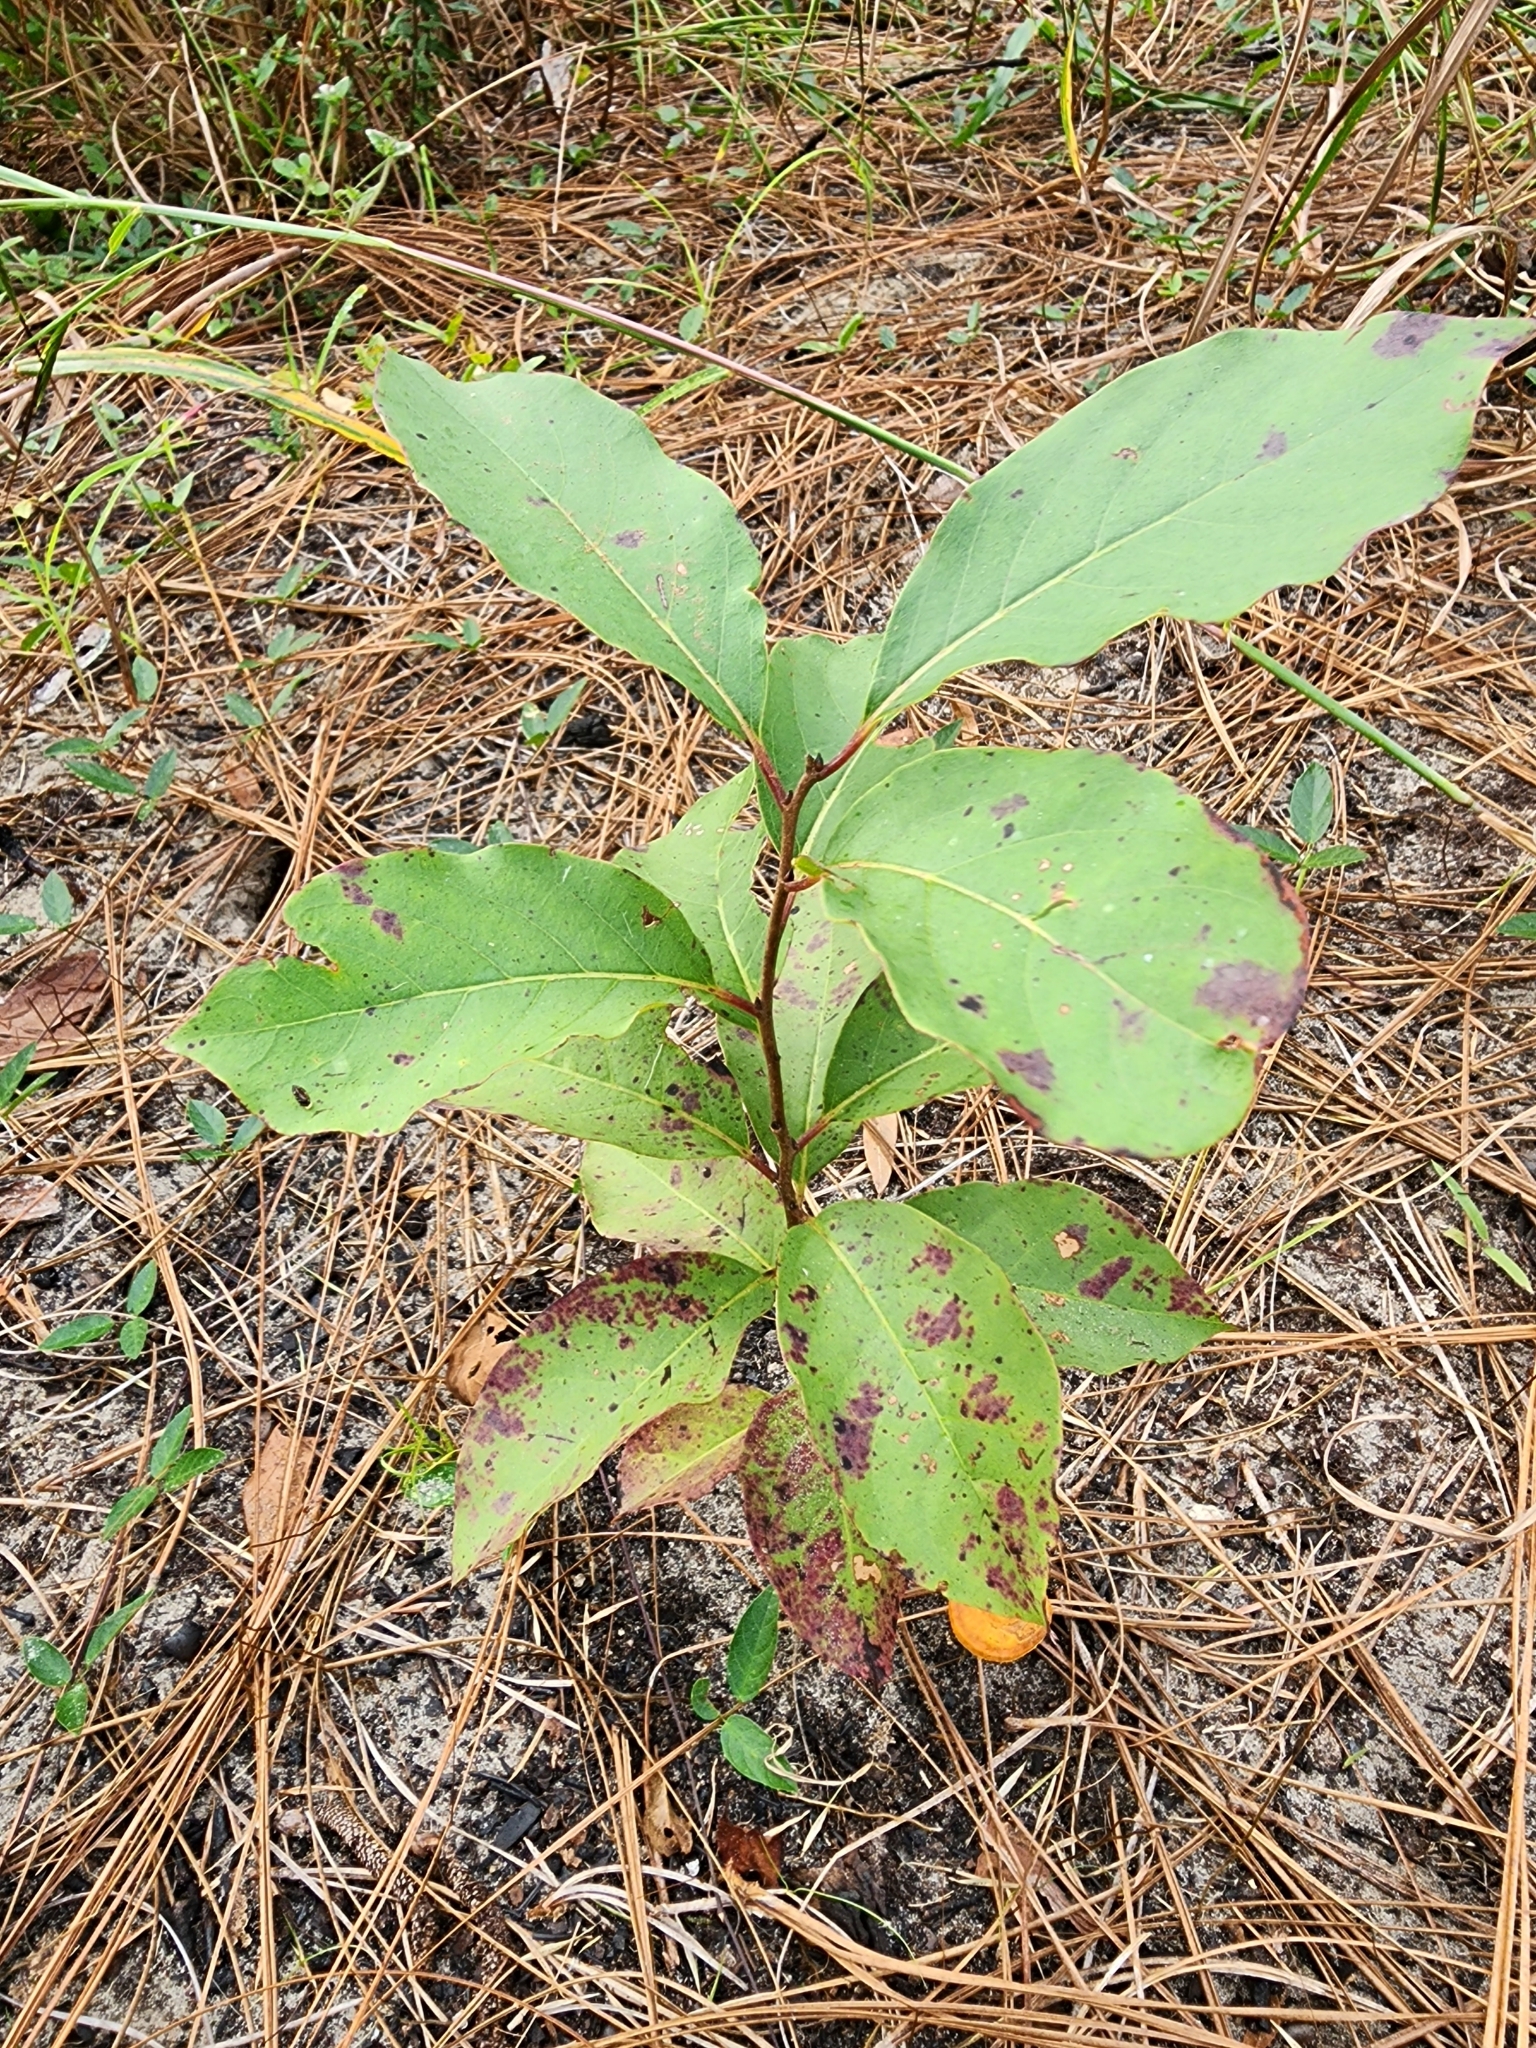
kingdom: Plantae
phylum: Tracheophyta
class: Magnoliopsida
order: Ericales
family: Ebenaceae
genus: Diospyros
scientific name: Diospyros virginiana
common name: Persimmon
